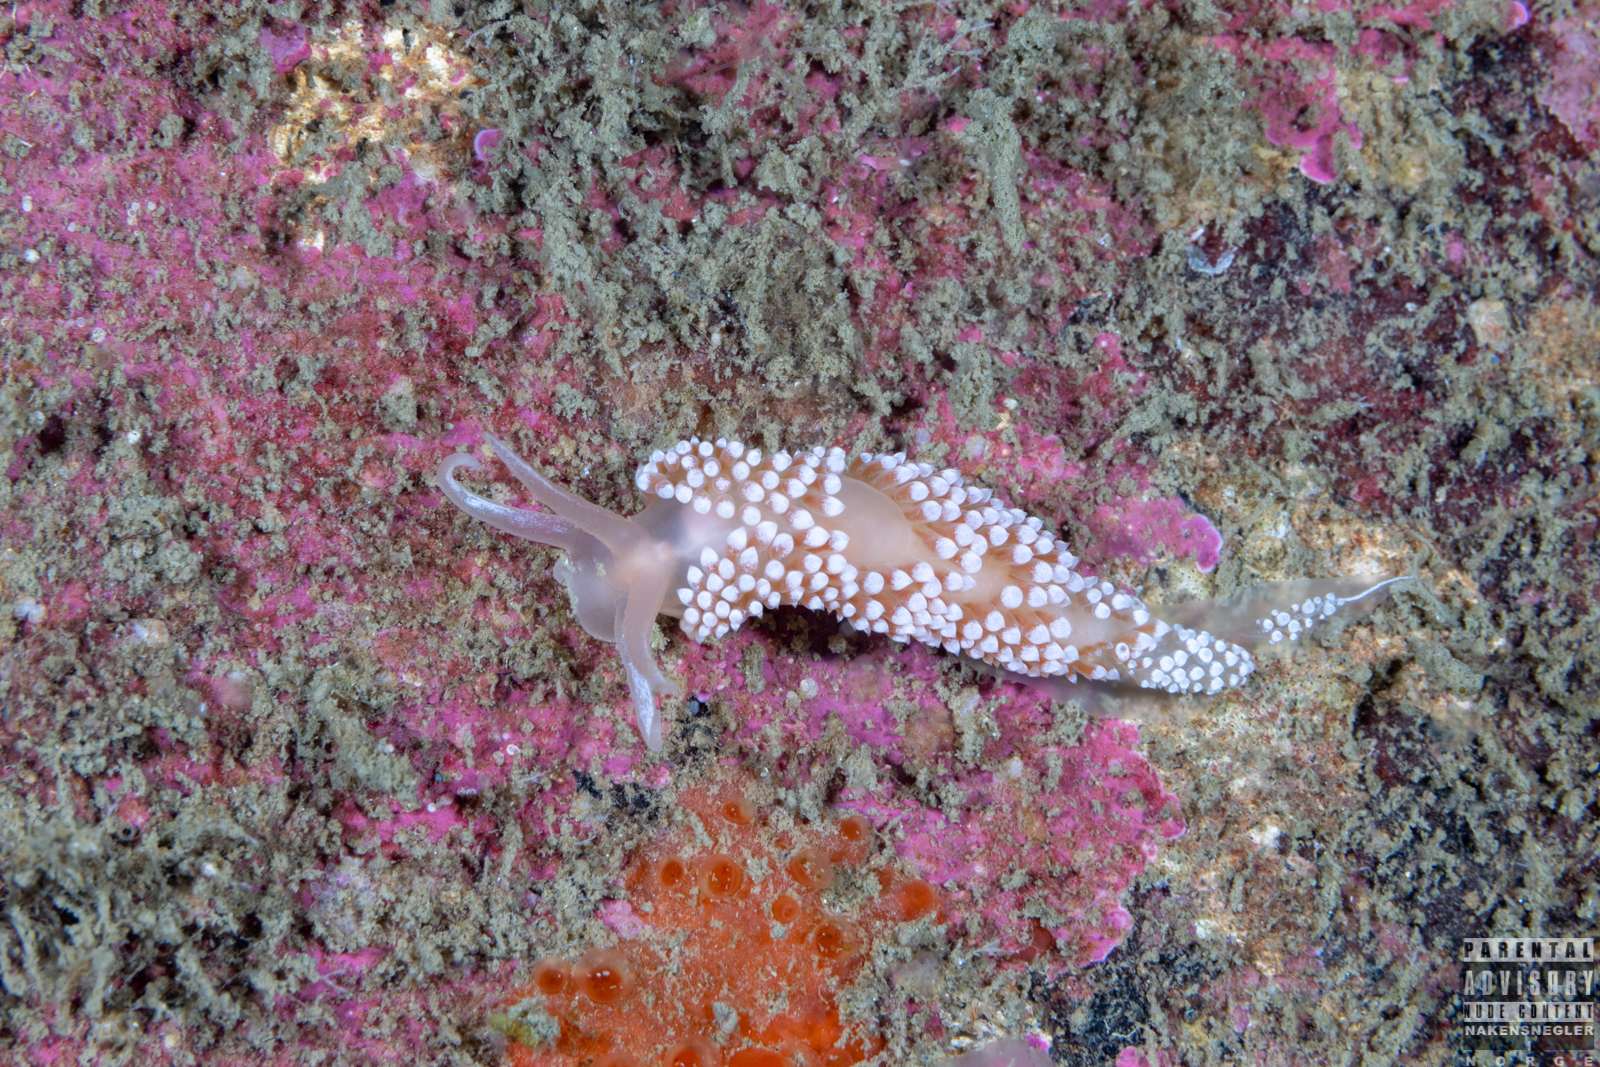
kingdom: Animalia
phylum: Mollusca
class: Gastropoda
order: Nudibranchia
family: Coryphellidae
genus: Coryphella
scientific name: Coryphella verrucosa
